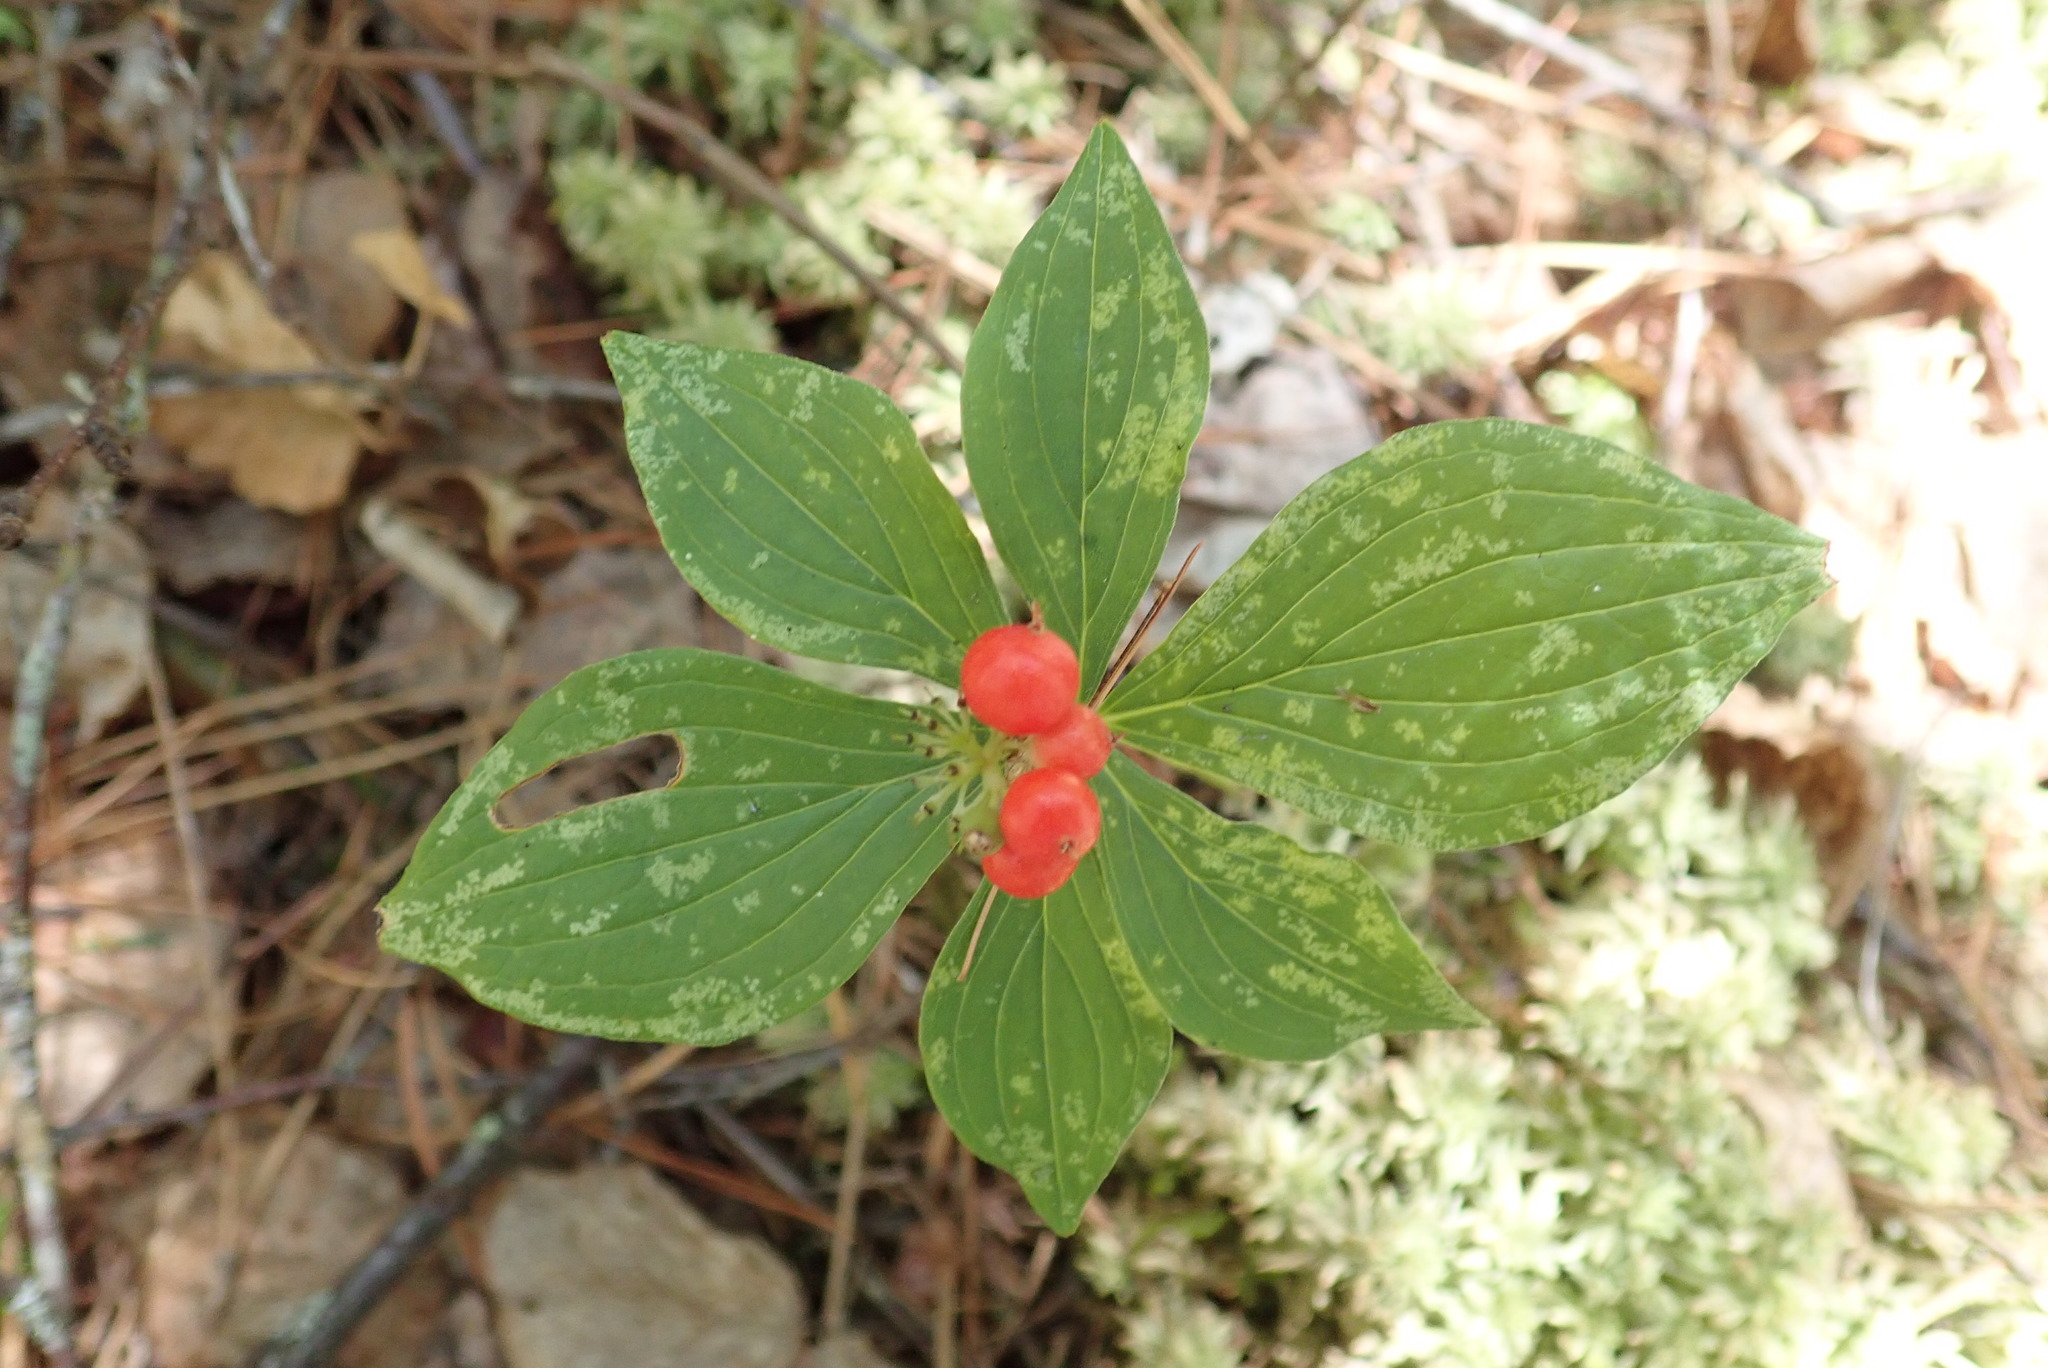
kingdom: Plantae
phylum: Tracheophyta
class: Magnoliopsida
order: Cornales
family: Cornaceae
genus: Cornus
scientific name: Cornus canadensis
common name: Creeping dogwood
